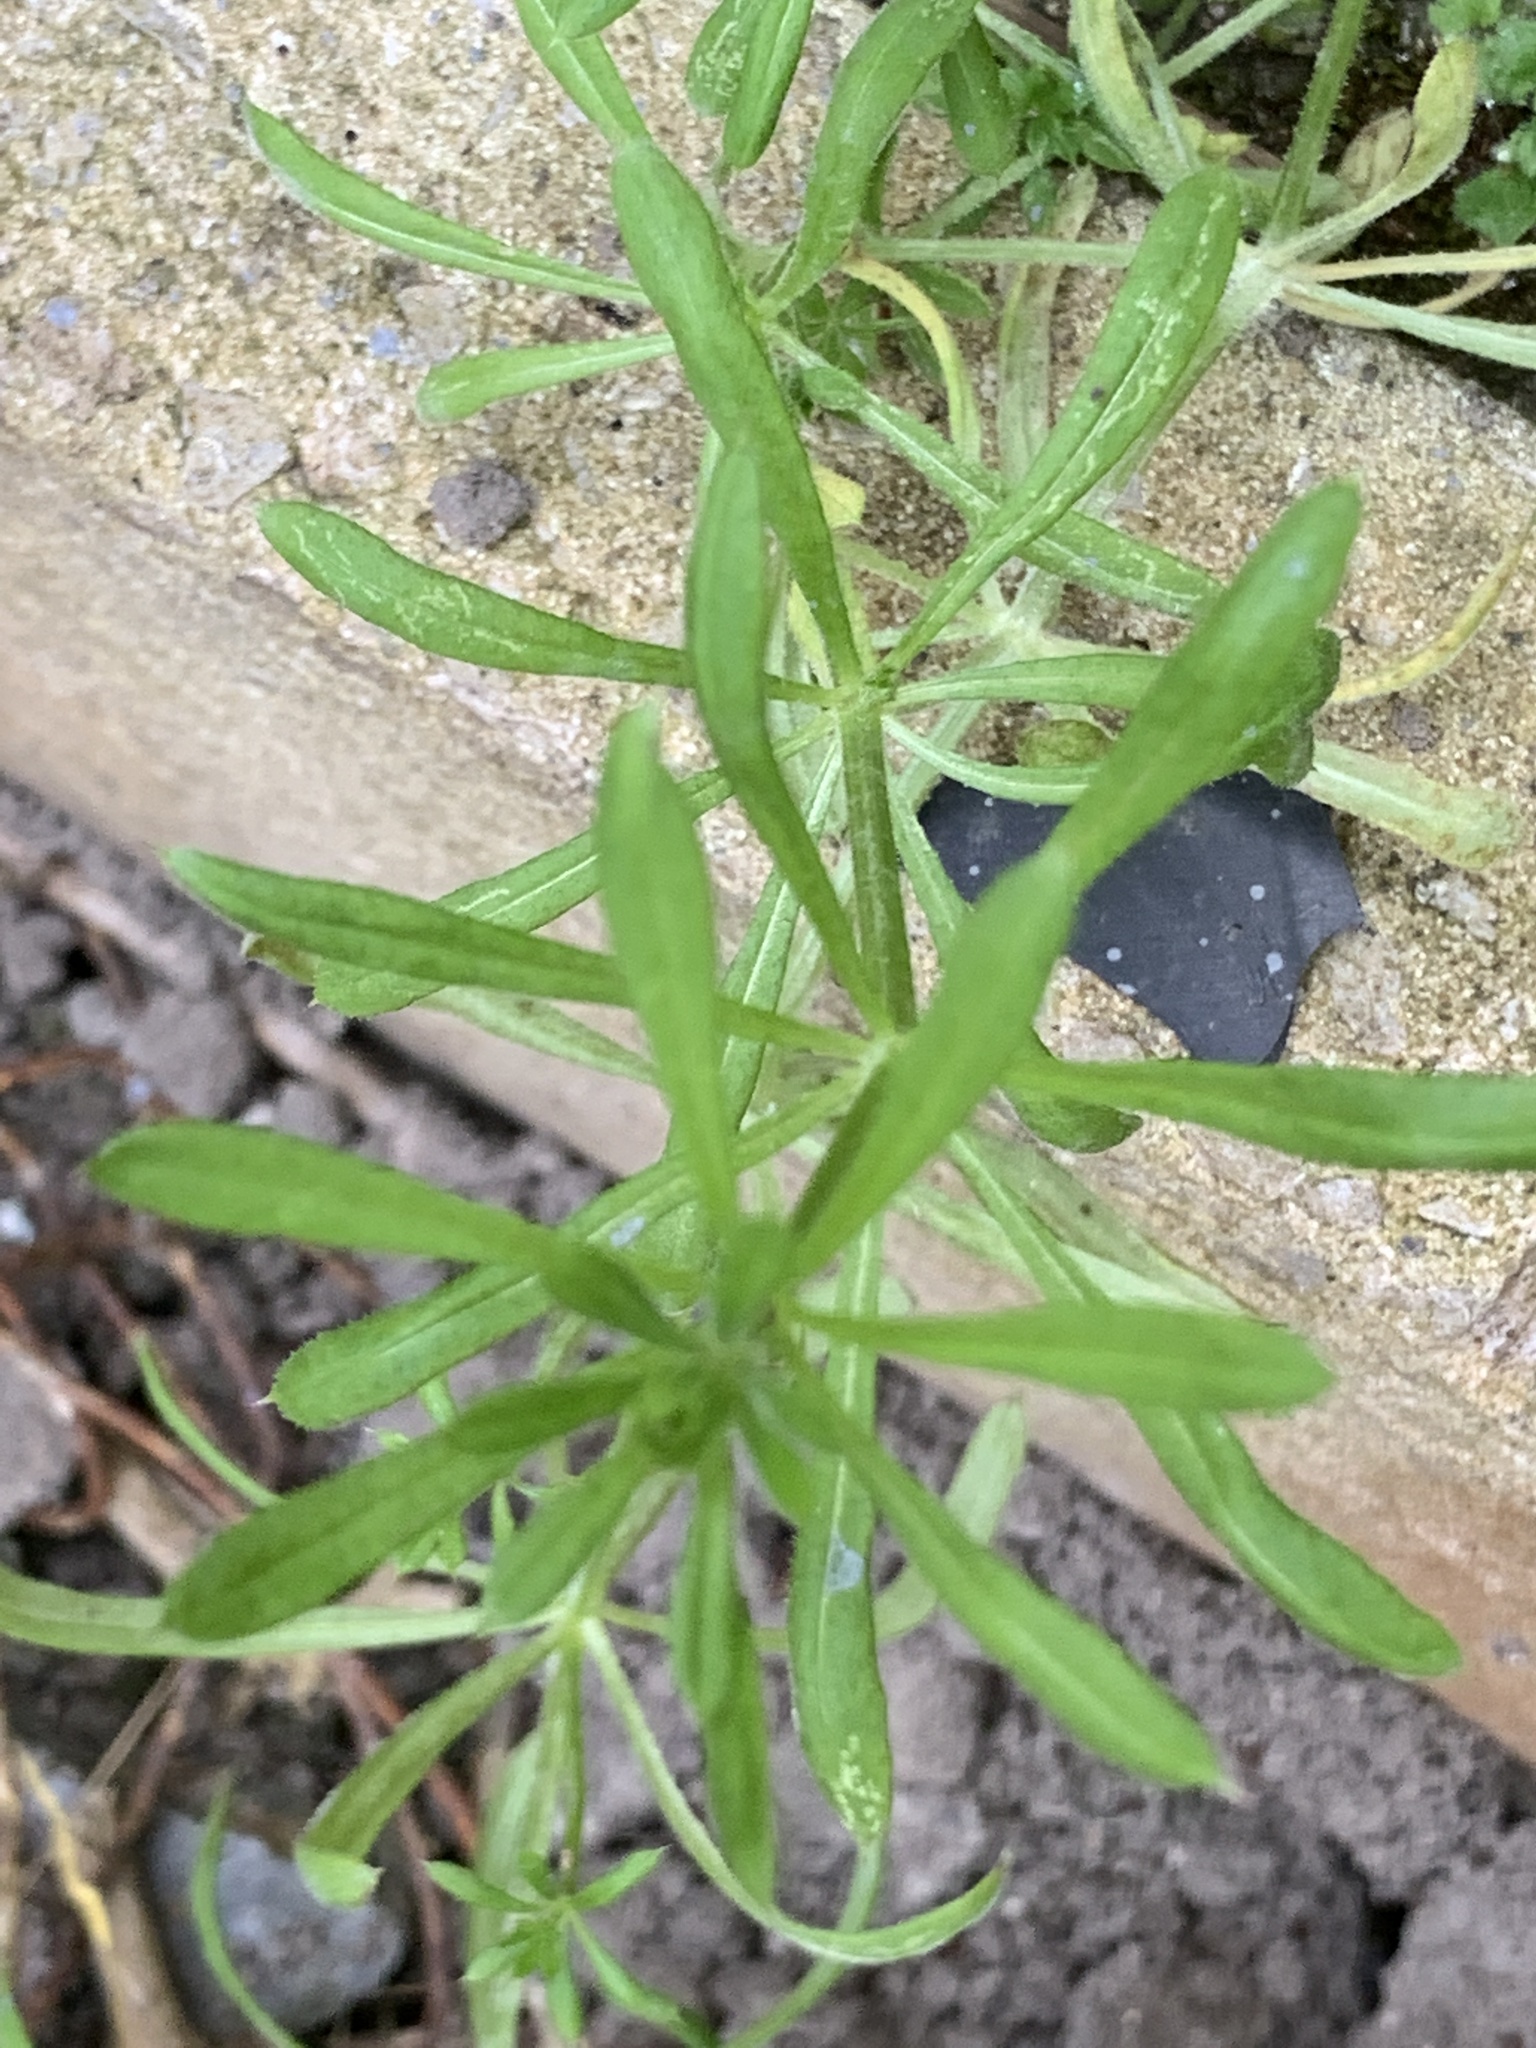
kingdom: Plantae
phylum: Tracheophyta
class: Magnoliopsida
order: Gentianales
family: Rubiaceae
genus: Galium
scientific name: Galium aparine
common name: Cleavers
